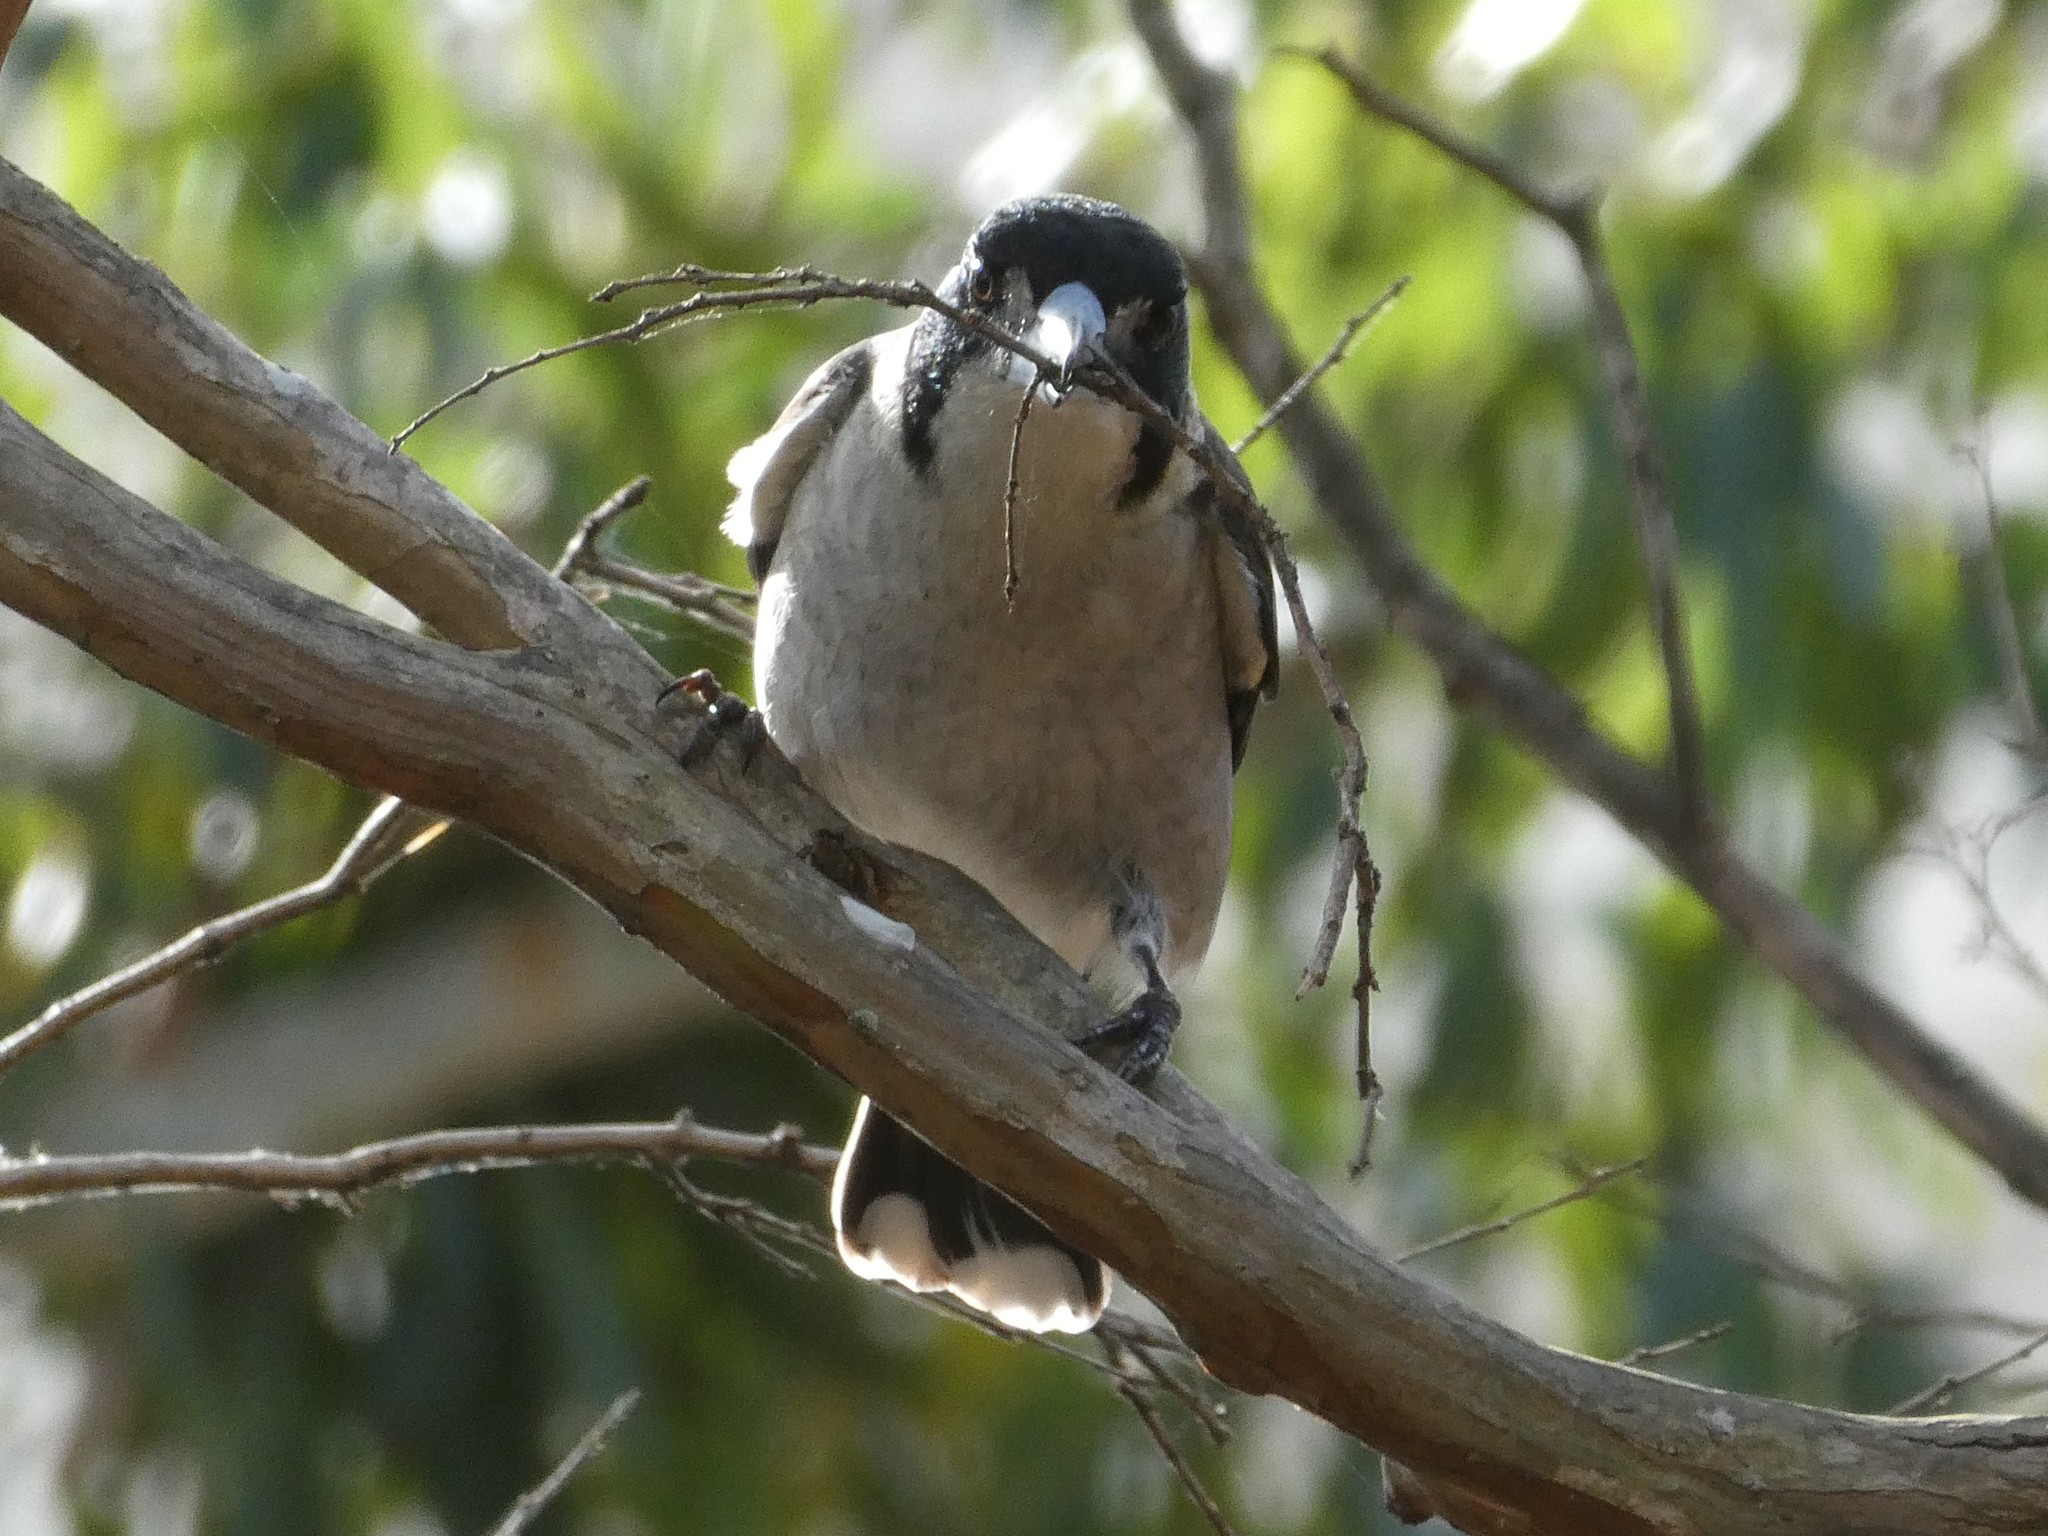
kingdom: Animalia
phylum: Chordata
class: Aves
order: Passeriformes
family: Cracticidae
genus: Cracticus
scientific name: Cracticus torquatus
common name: Grey butcherbird
